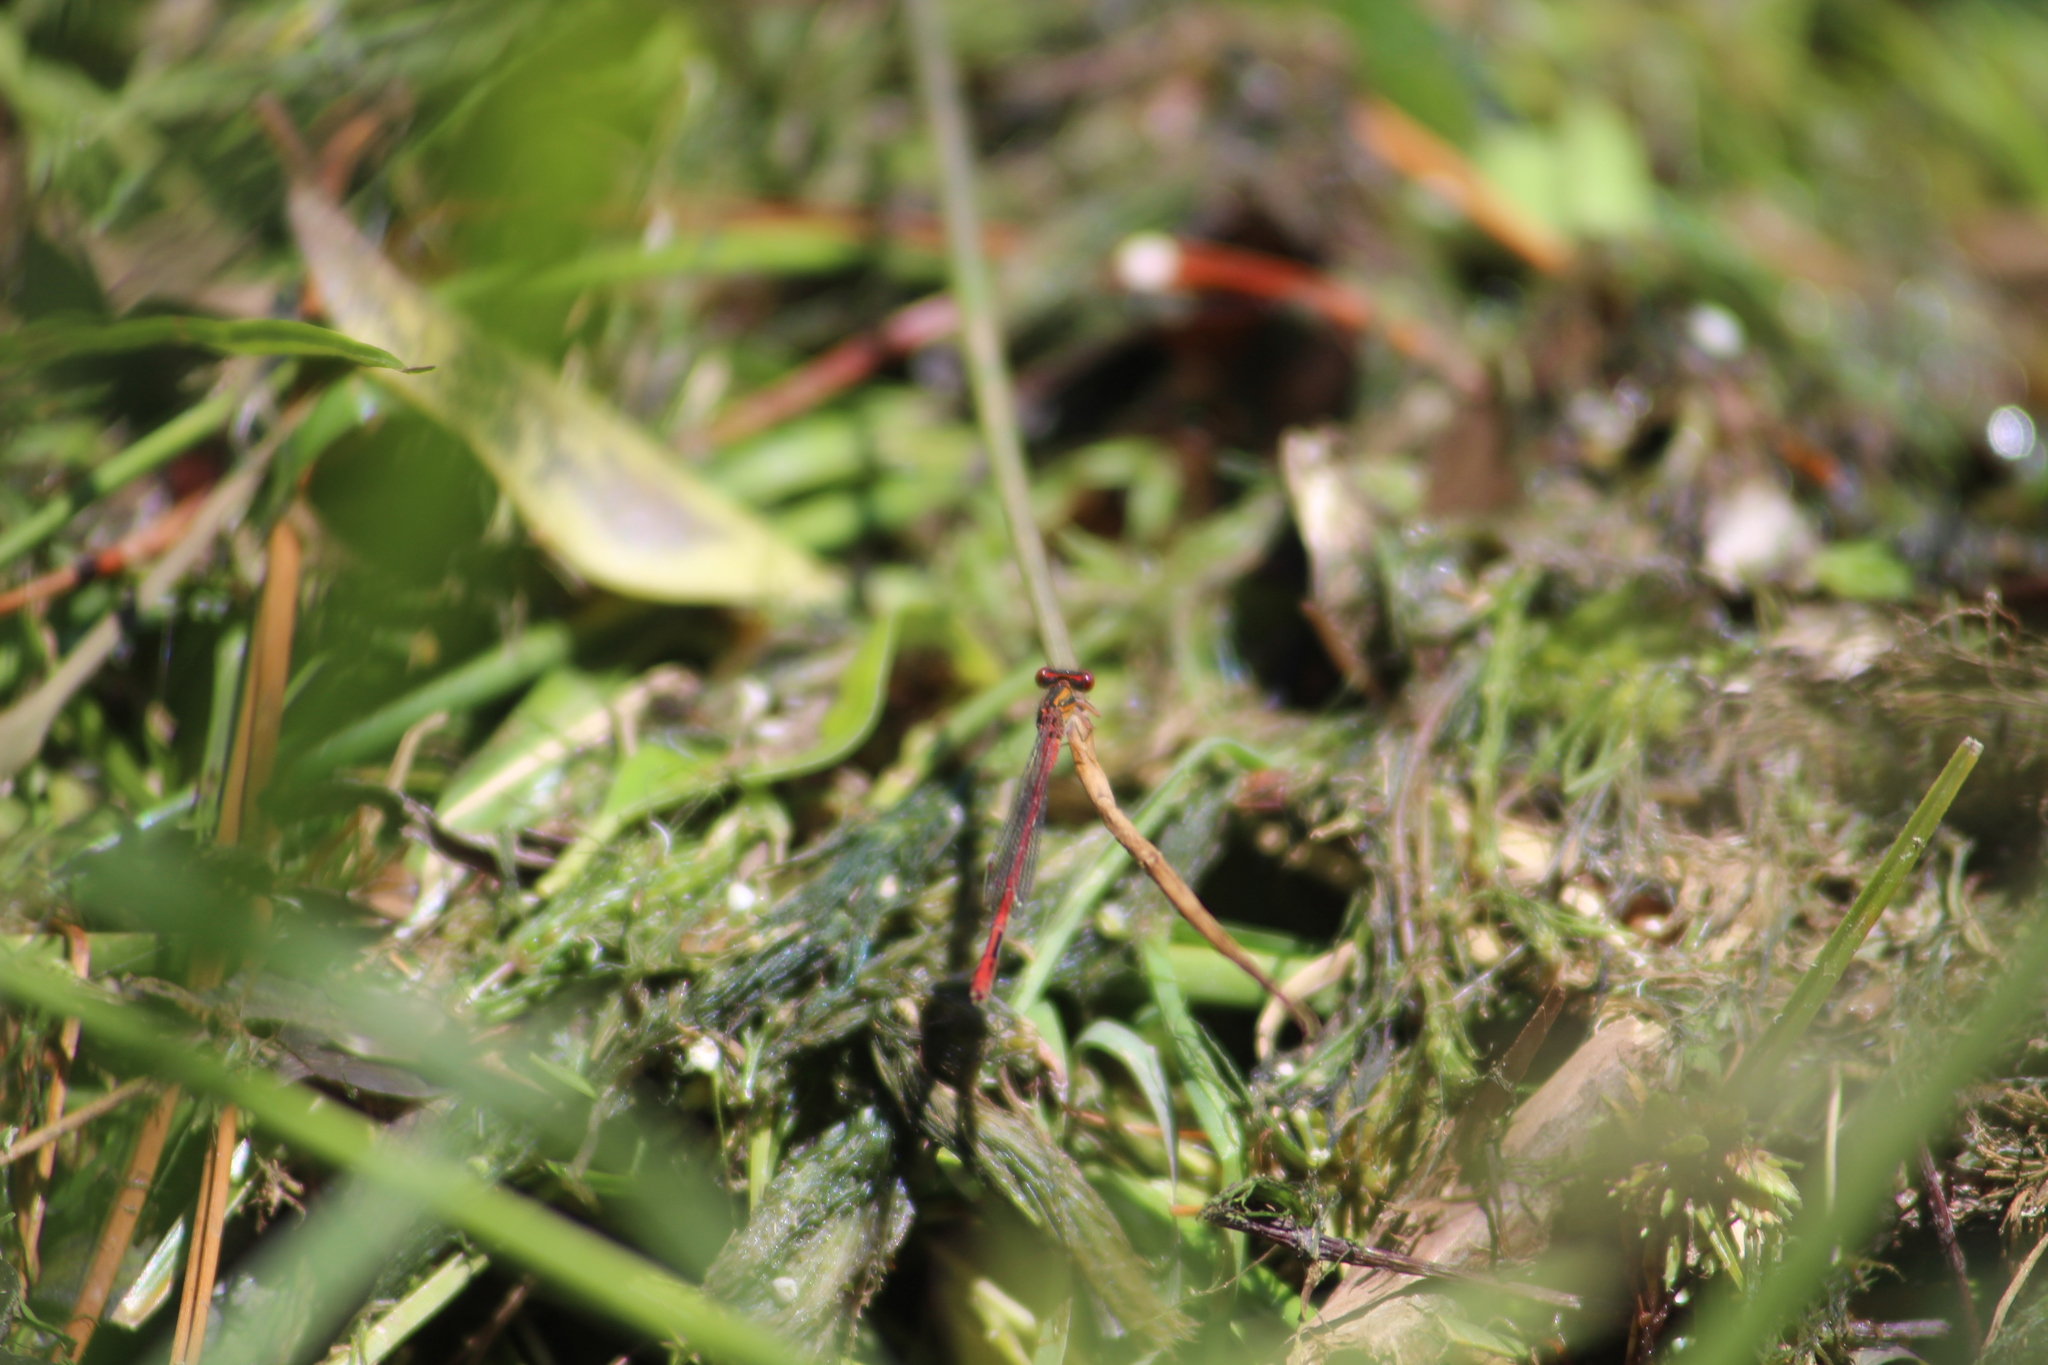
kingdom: Animalia
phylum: Arthropoda
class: Insecta
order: Odonata
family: Coenagrionidae
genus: Xanthocnemis
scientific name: Xanthocnemis zealandica
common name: Common redcoat damselfly
